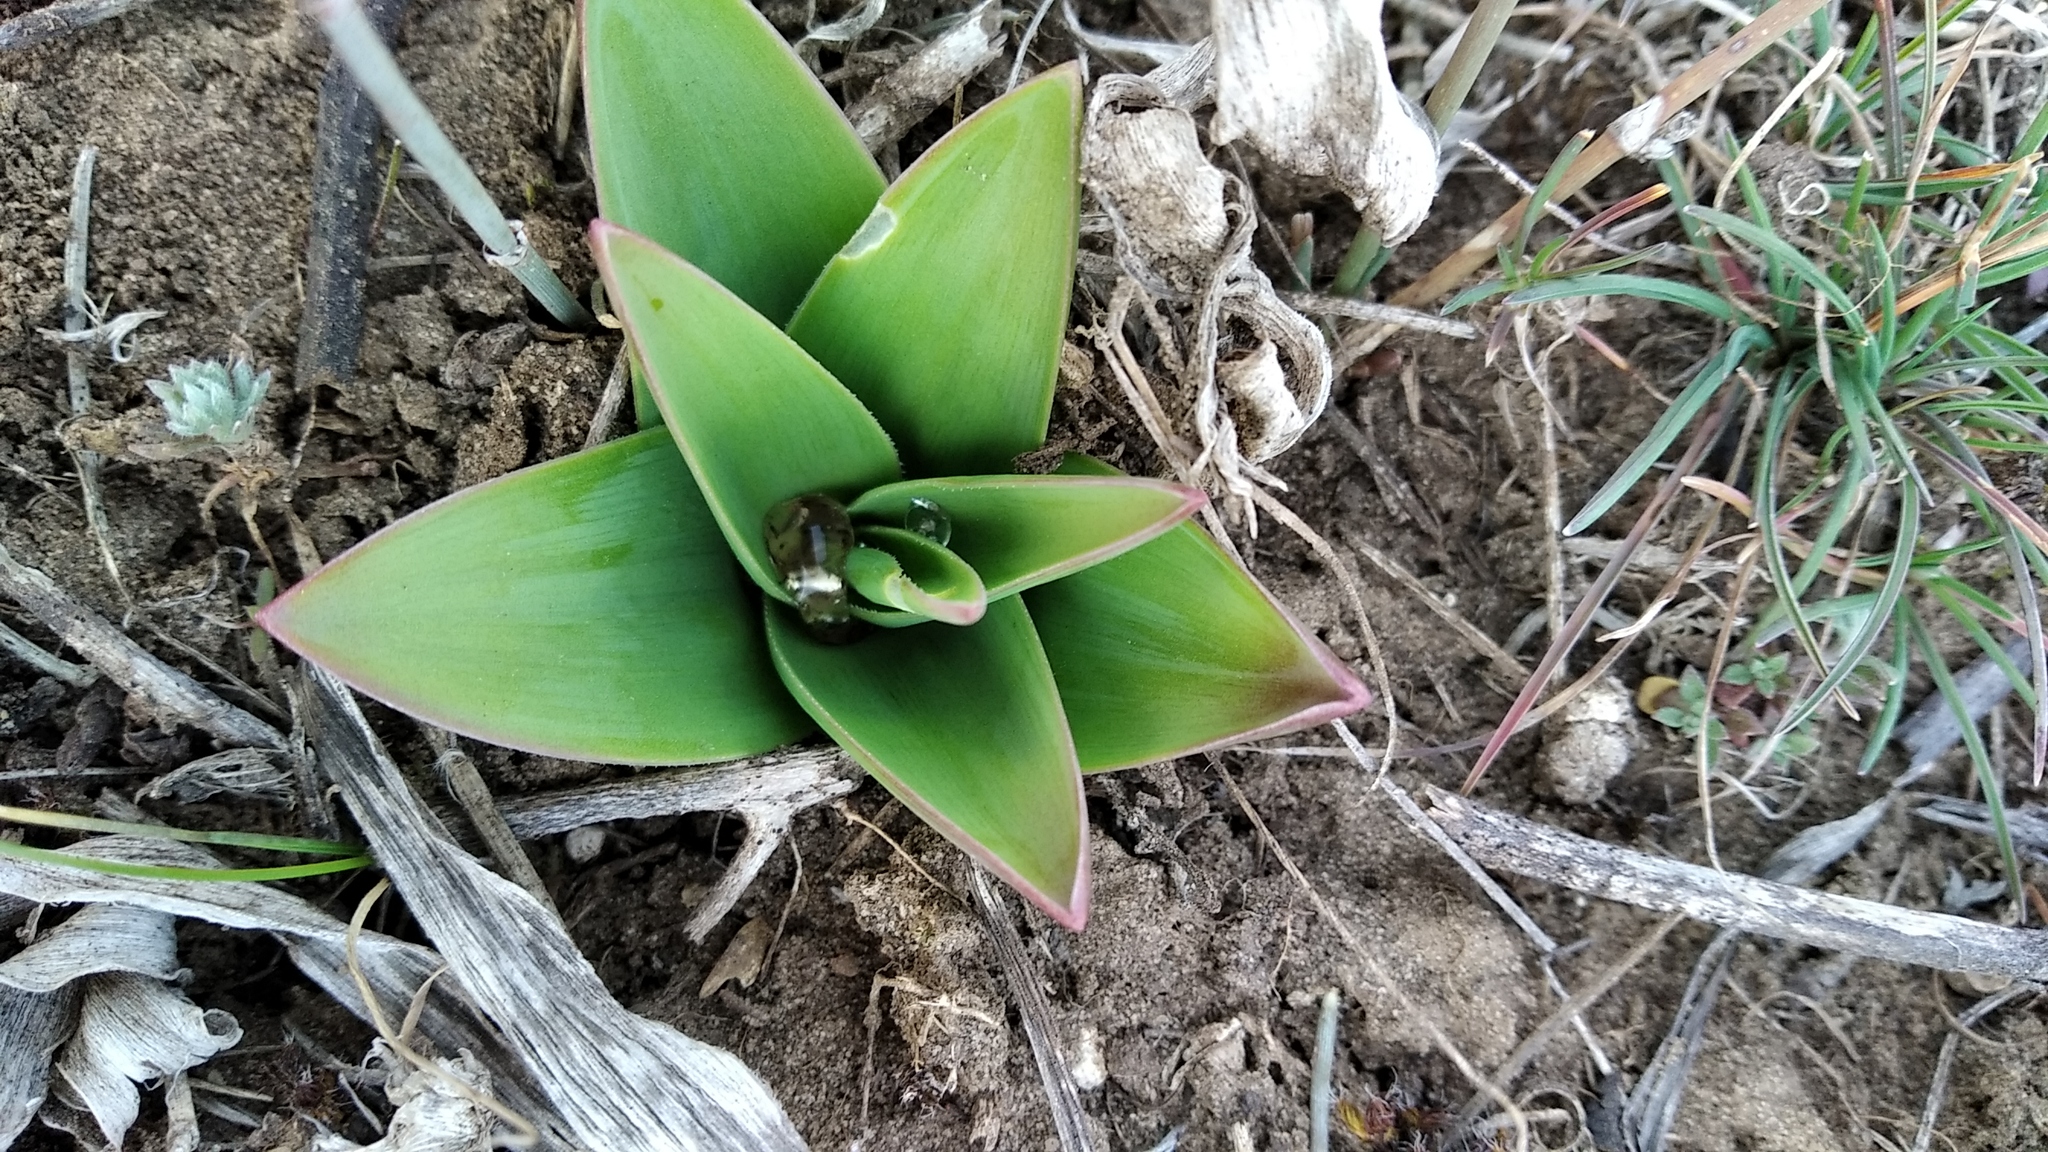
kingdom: Plantae
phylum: Tracheophyta
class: Liliopsida
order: Asparagales
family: Asparagaceae
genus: Bellevalia
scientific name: Bellevalia speciosa
